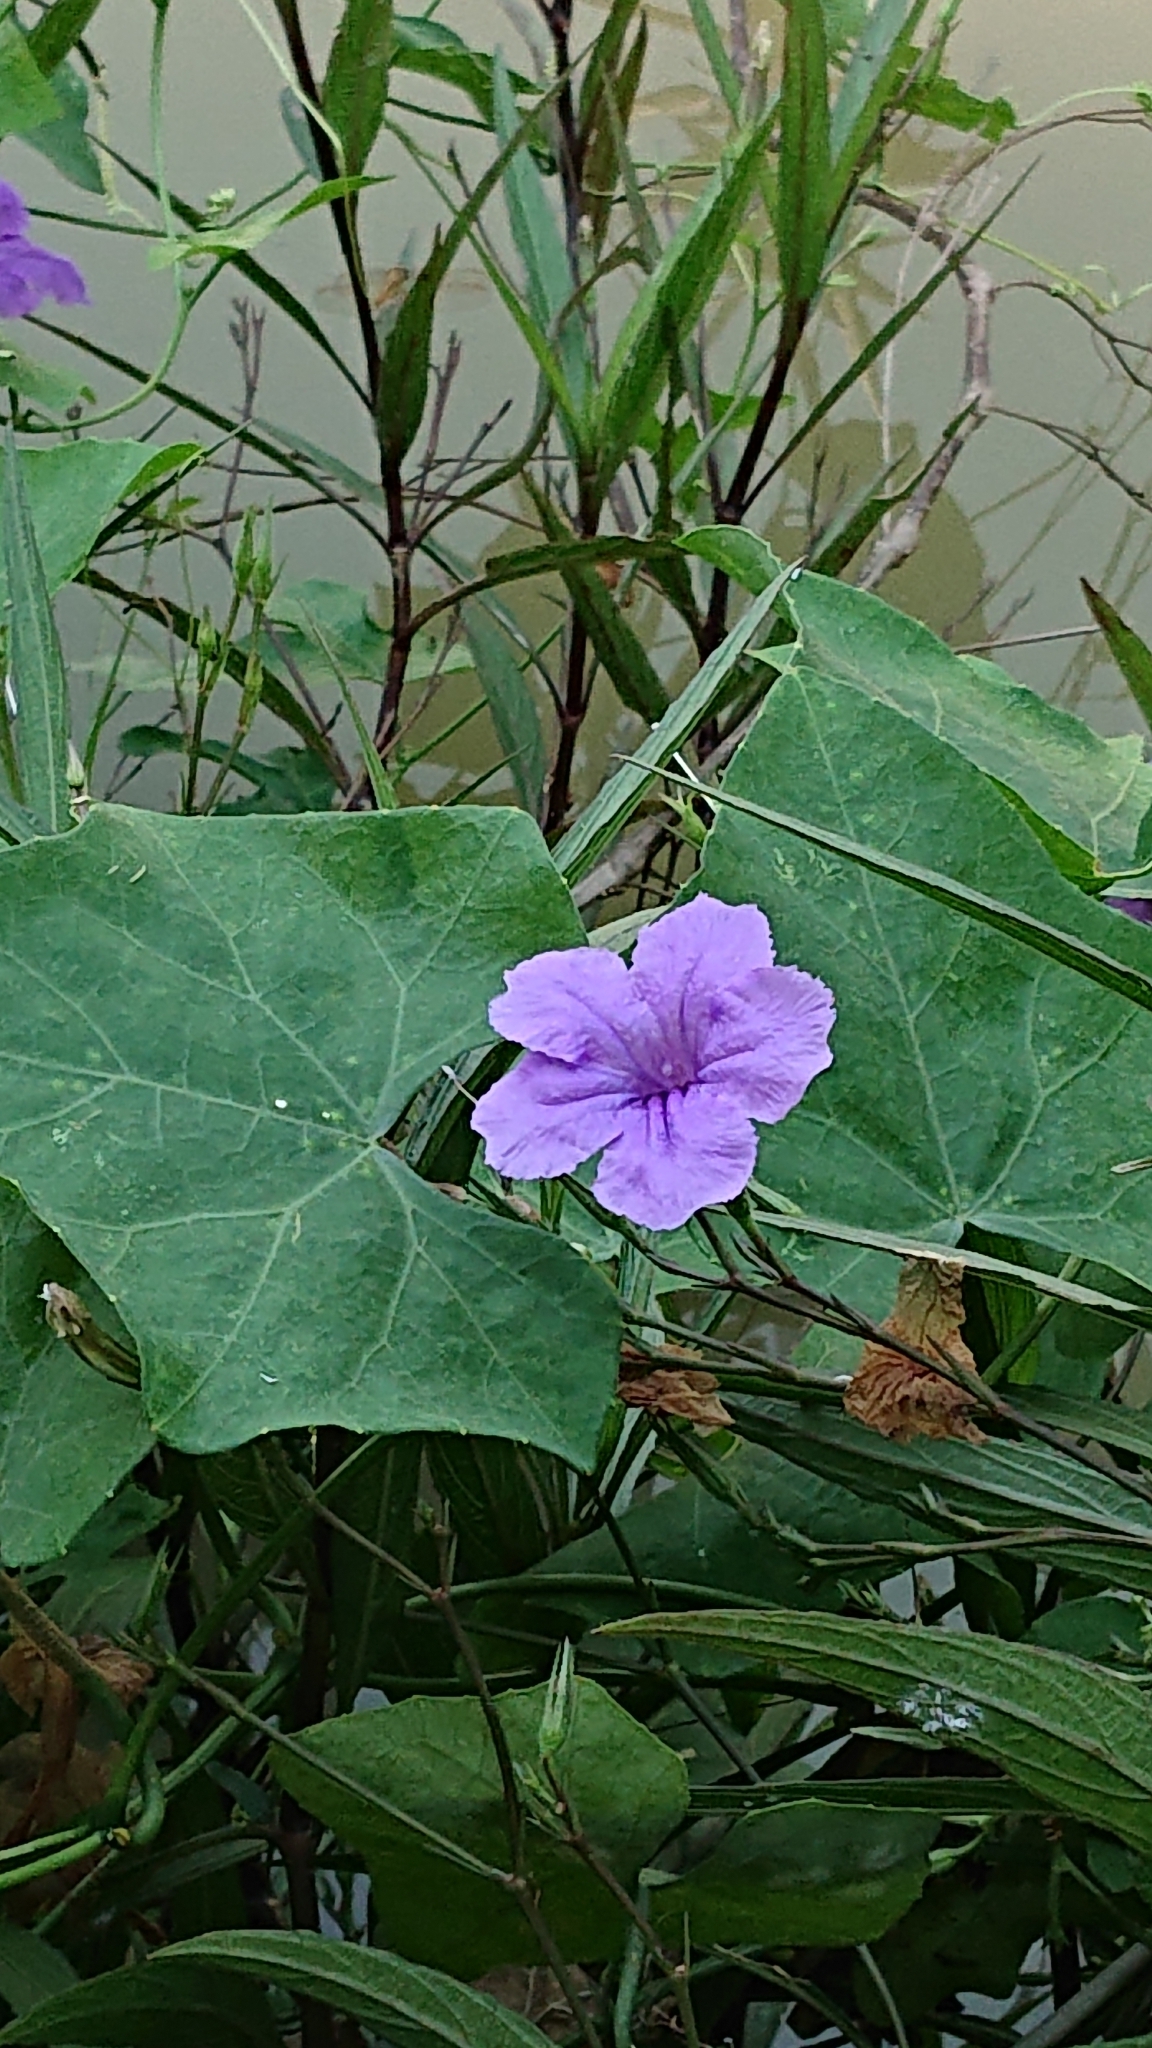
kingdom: Plantae
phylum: Tracheophyta
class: Magnoliopsida
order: Lamiales
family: Acanthaceae
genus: Ruellia
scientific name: Ruellia simplex
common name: Softseed wild petunia
